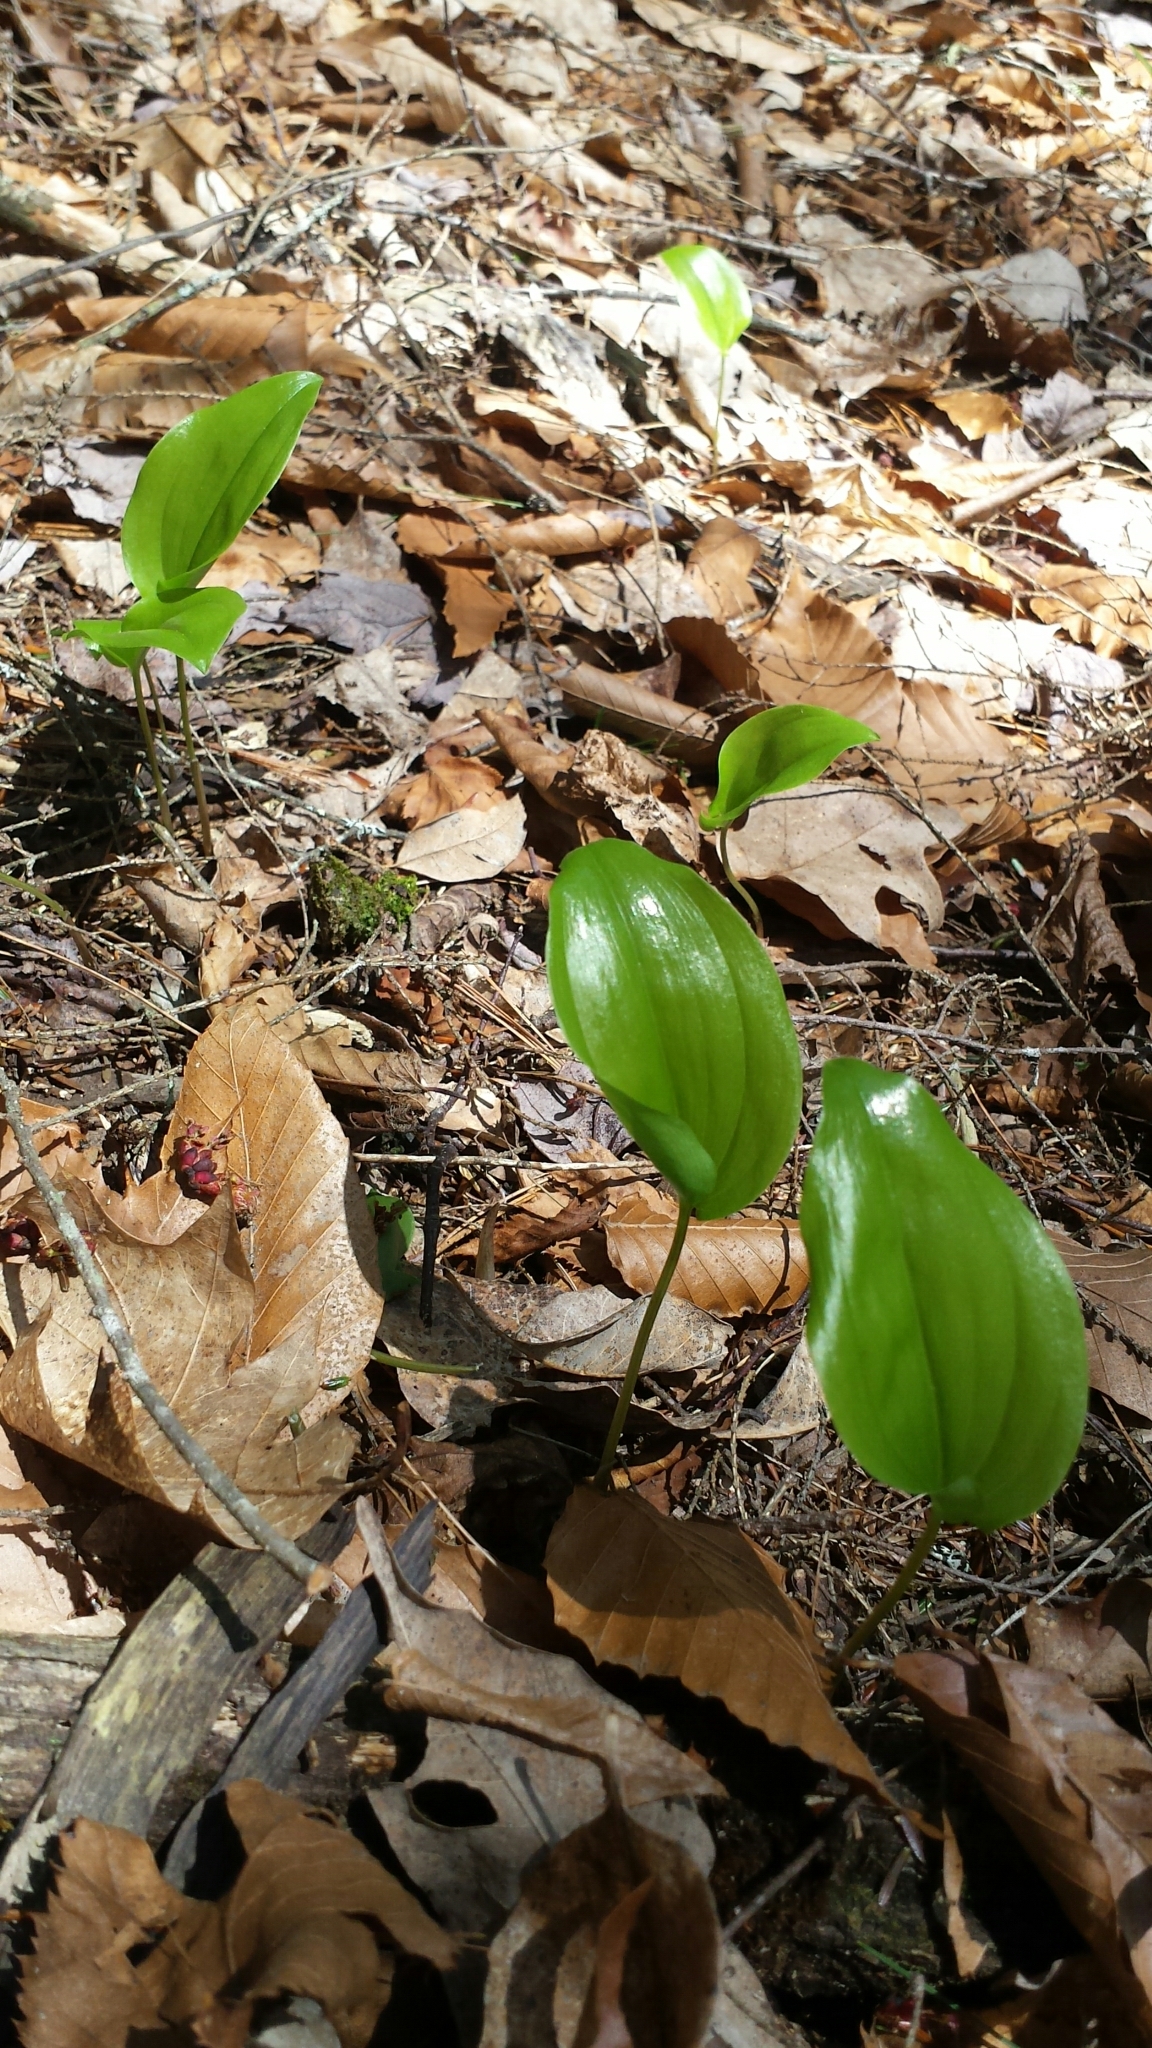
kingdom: Plantae
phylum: Tracheophyta
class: Liliopsida
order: Asparagales
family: Asparagaceae
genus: Maianthemum
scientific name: Maianthemum canadense
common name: False lily-of-the-valley
